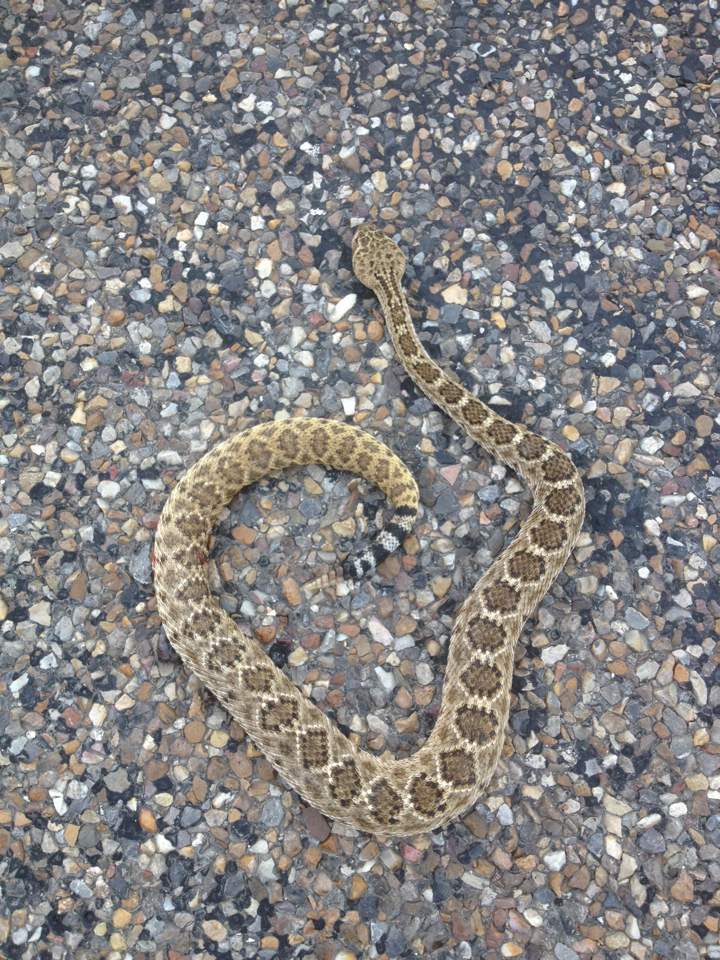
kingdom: Animalia
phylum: Chordata
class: Squamata
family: Viperidae
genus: Crotalus
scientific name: Crotalus atrox
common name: Western diamond-backed rattlesnake
